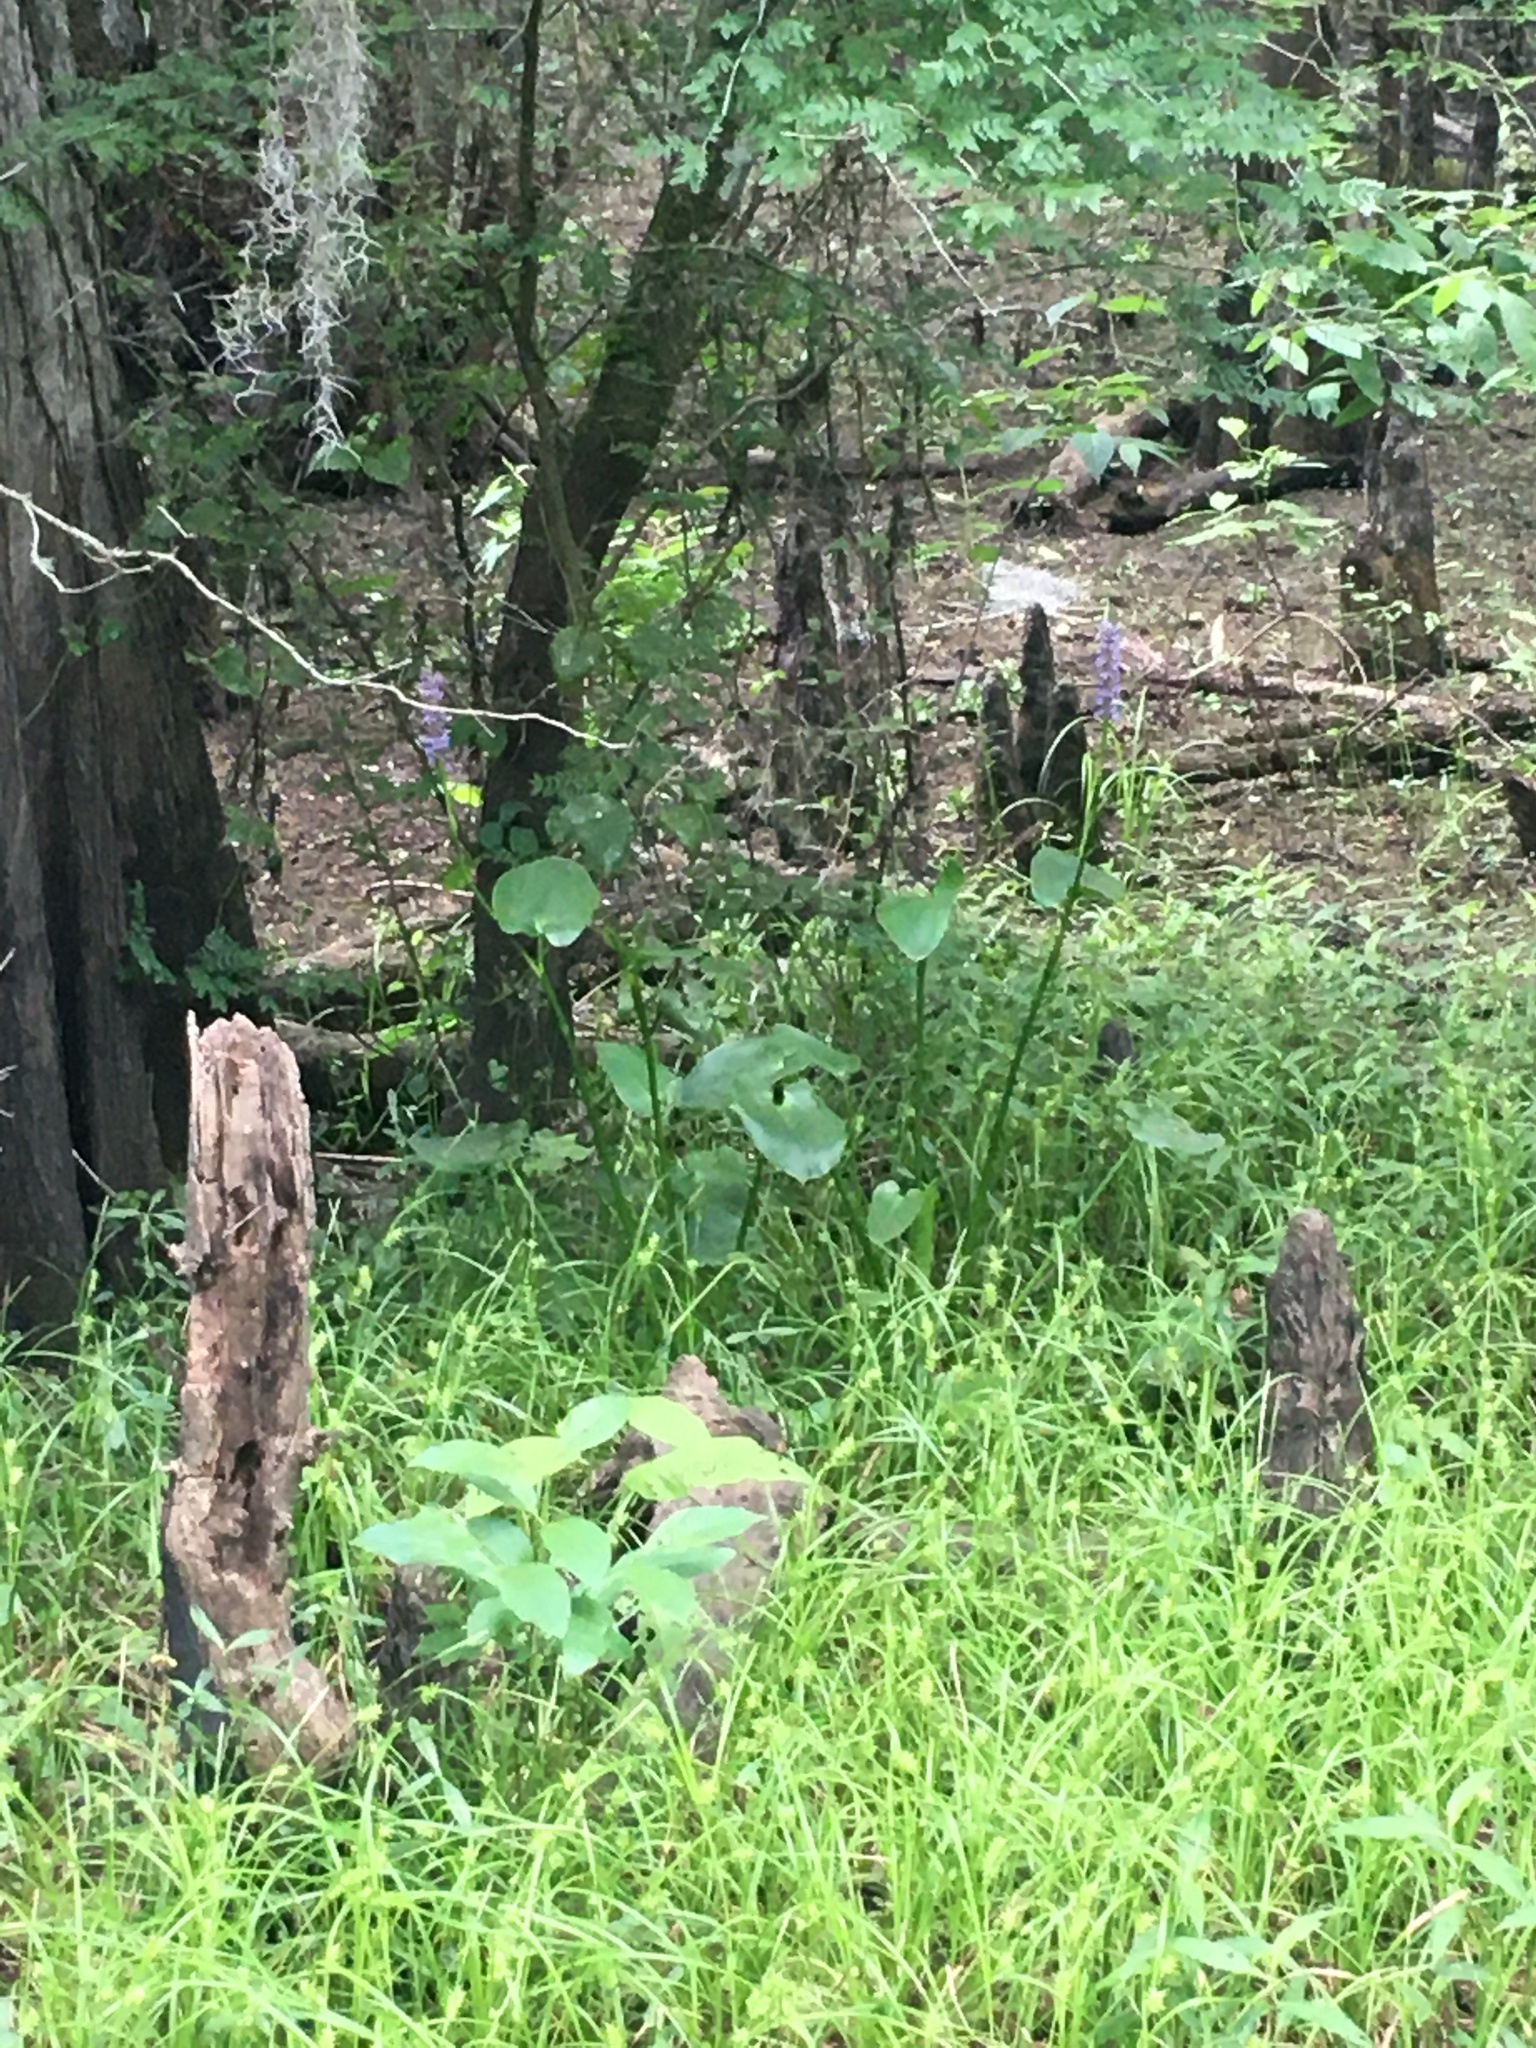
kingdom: Plantae
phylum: Tracheophyta
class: Liliopsida
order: Commelinales
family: Pontederiaceae
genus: Pontederia
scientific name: Pontederia cordata
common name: Pickerelweed
